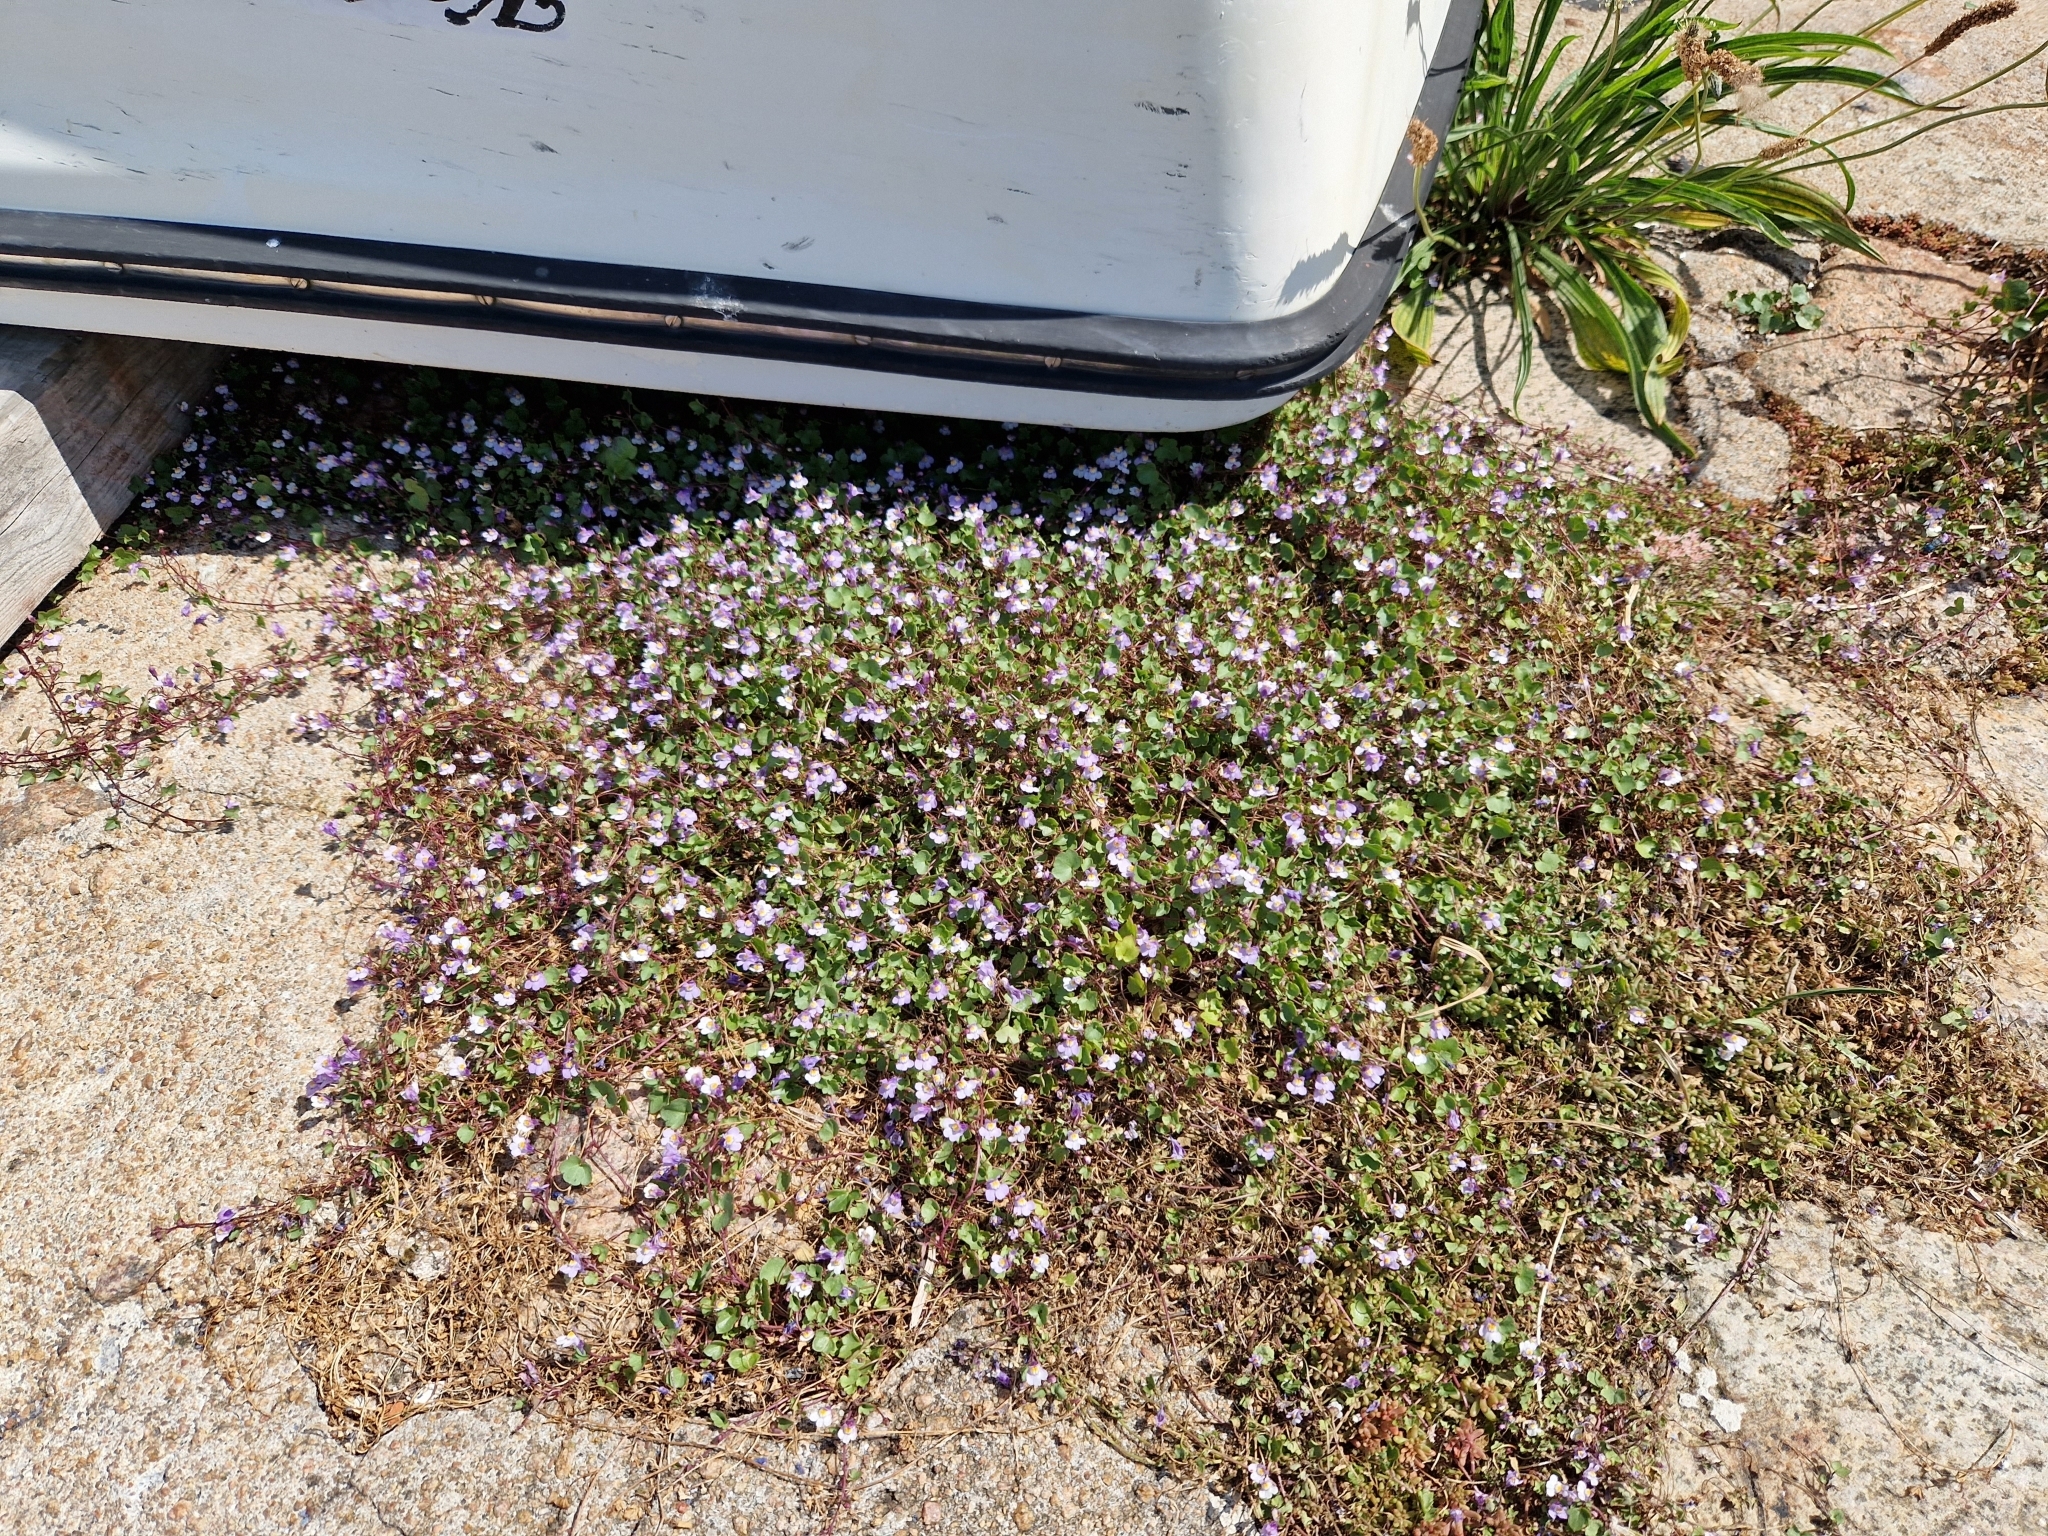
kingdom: Plantae
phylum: Tracheophyta
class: Magnoliopsida
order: Lamiales
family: Plantaginaceae
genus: Cymbalaria
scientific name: Cymbalaria muralis
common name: Ivy-leaved toadflax
